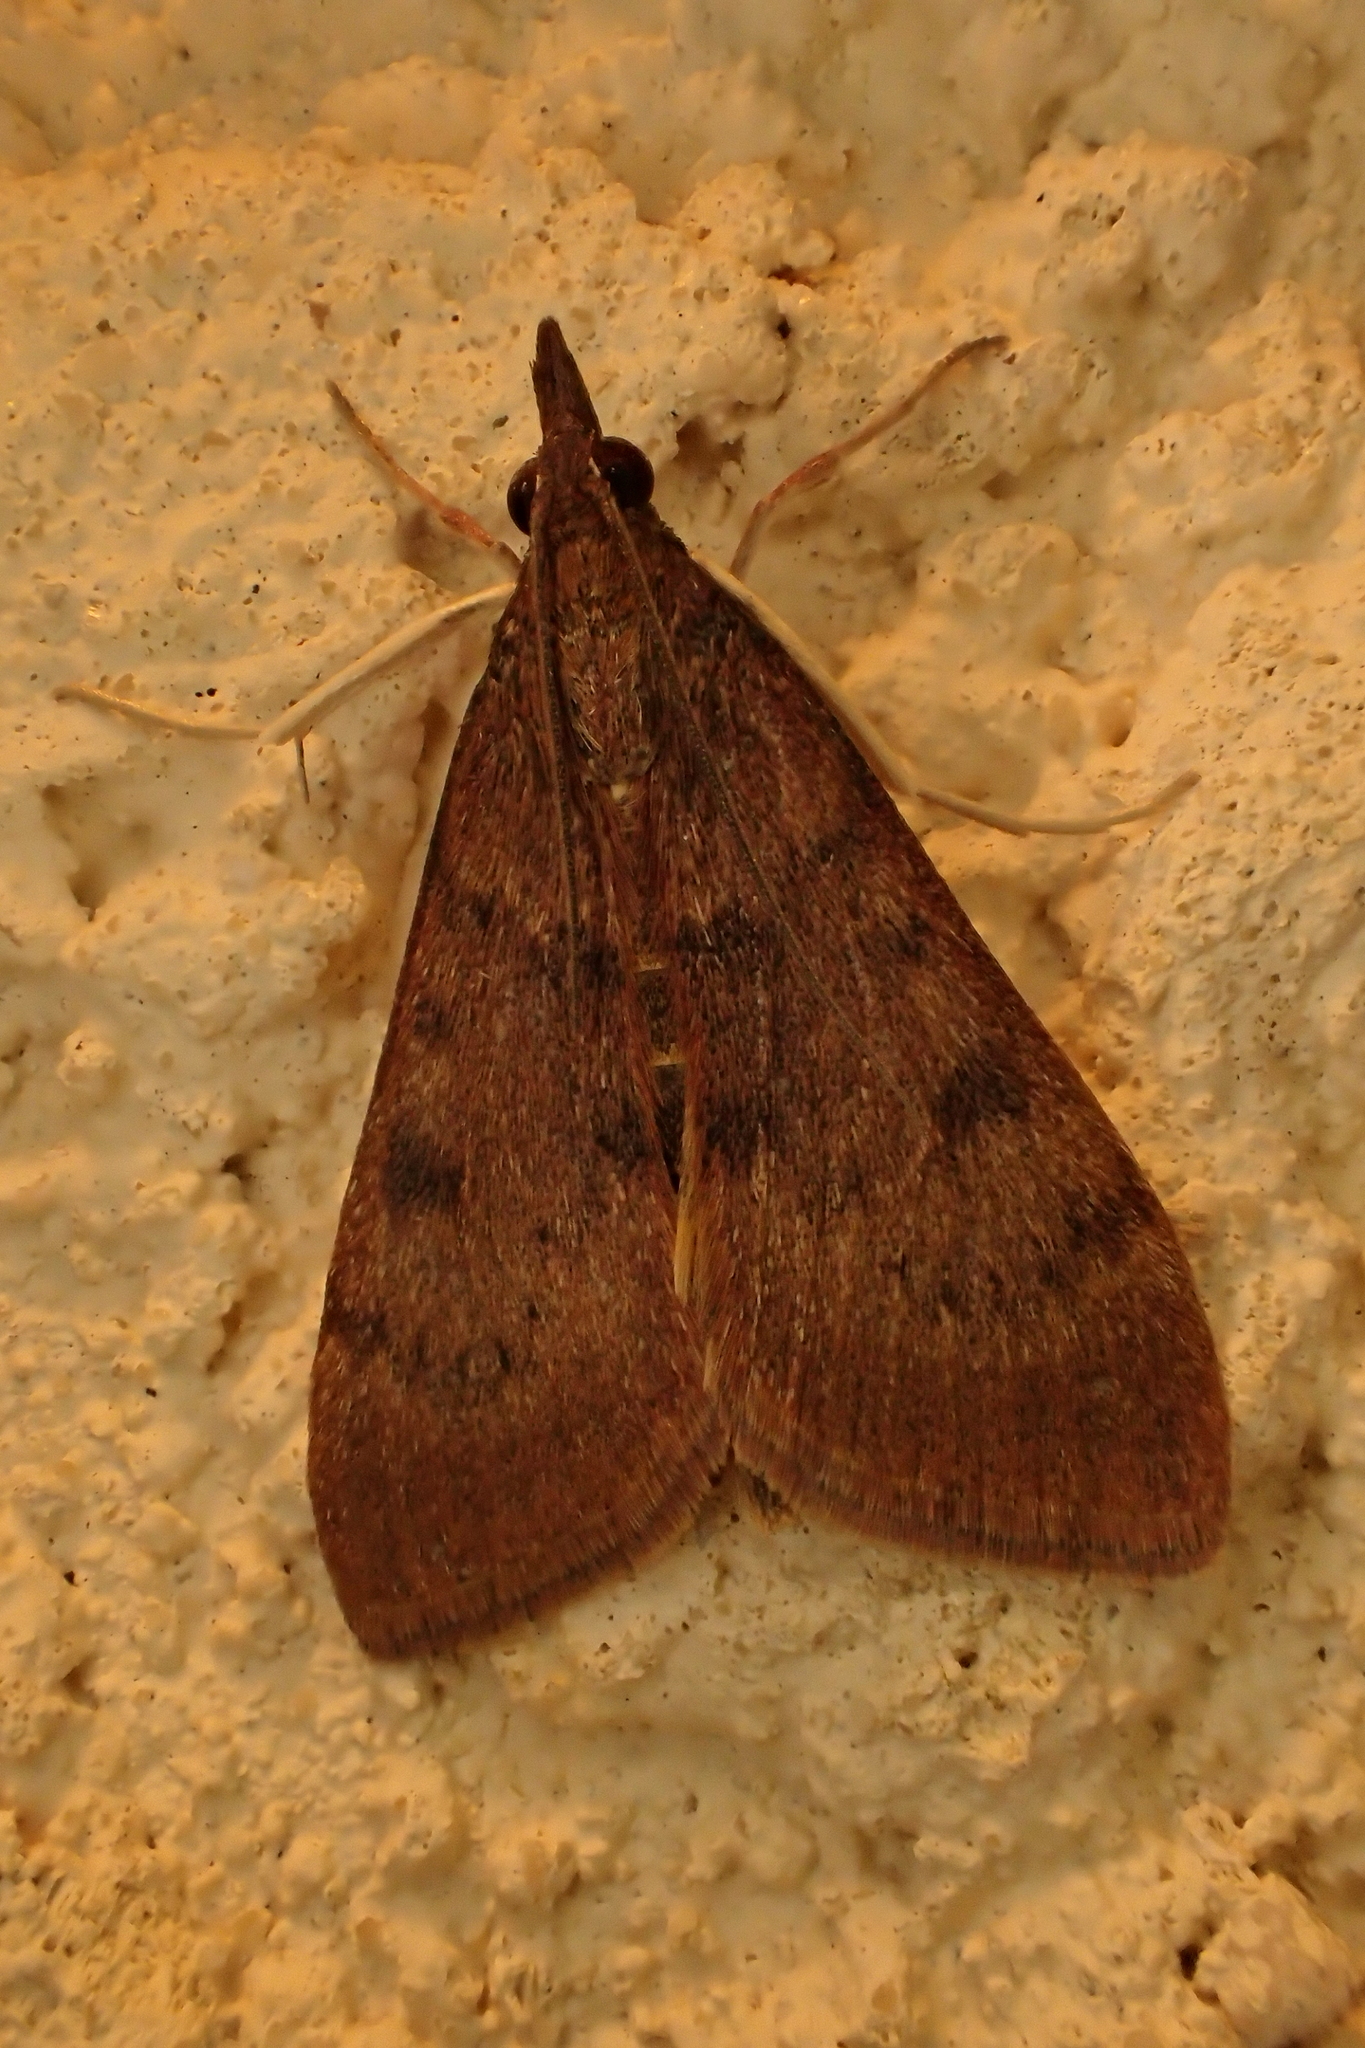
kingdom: Animalia
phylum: Arthropoda
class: Insecta
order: Lepidoptera
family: Crambidae
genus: Uresiphita
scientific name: Uresiphita gilvata
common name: Yellow-underwing pearl
